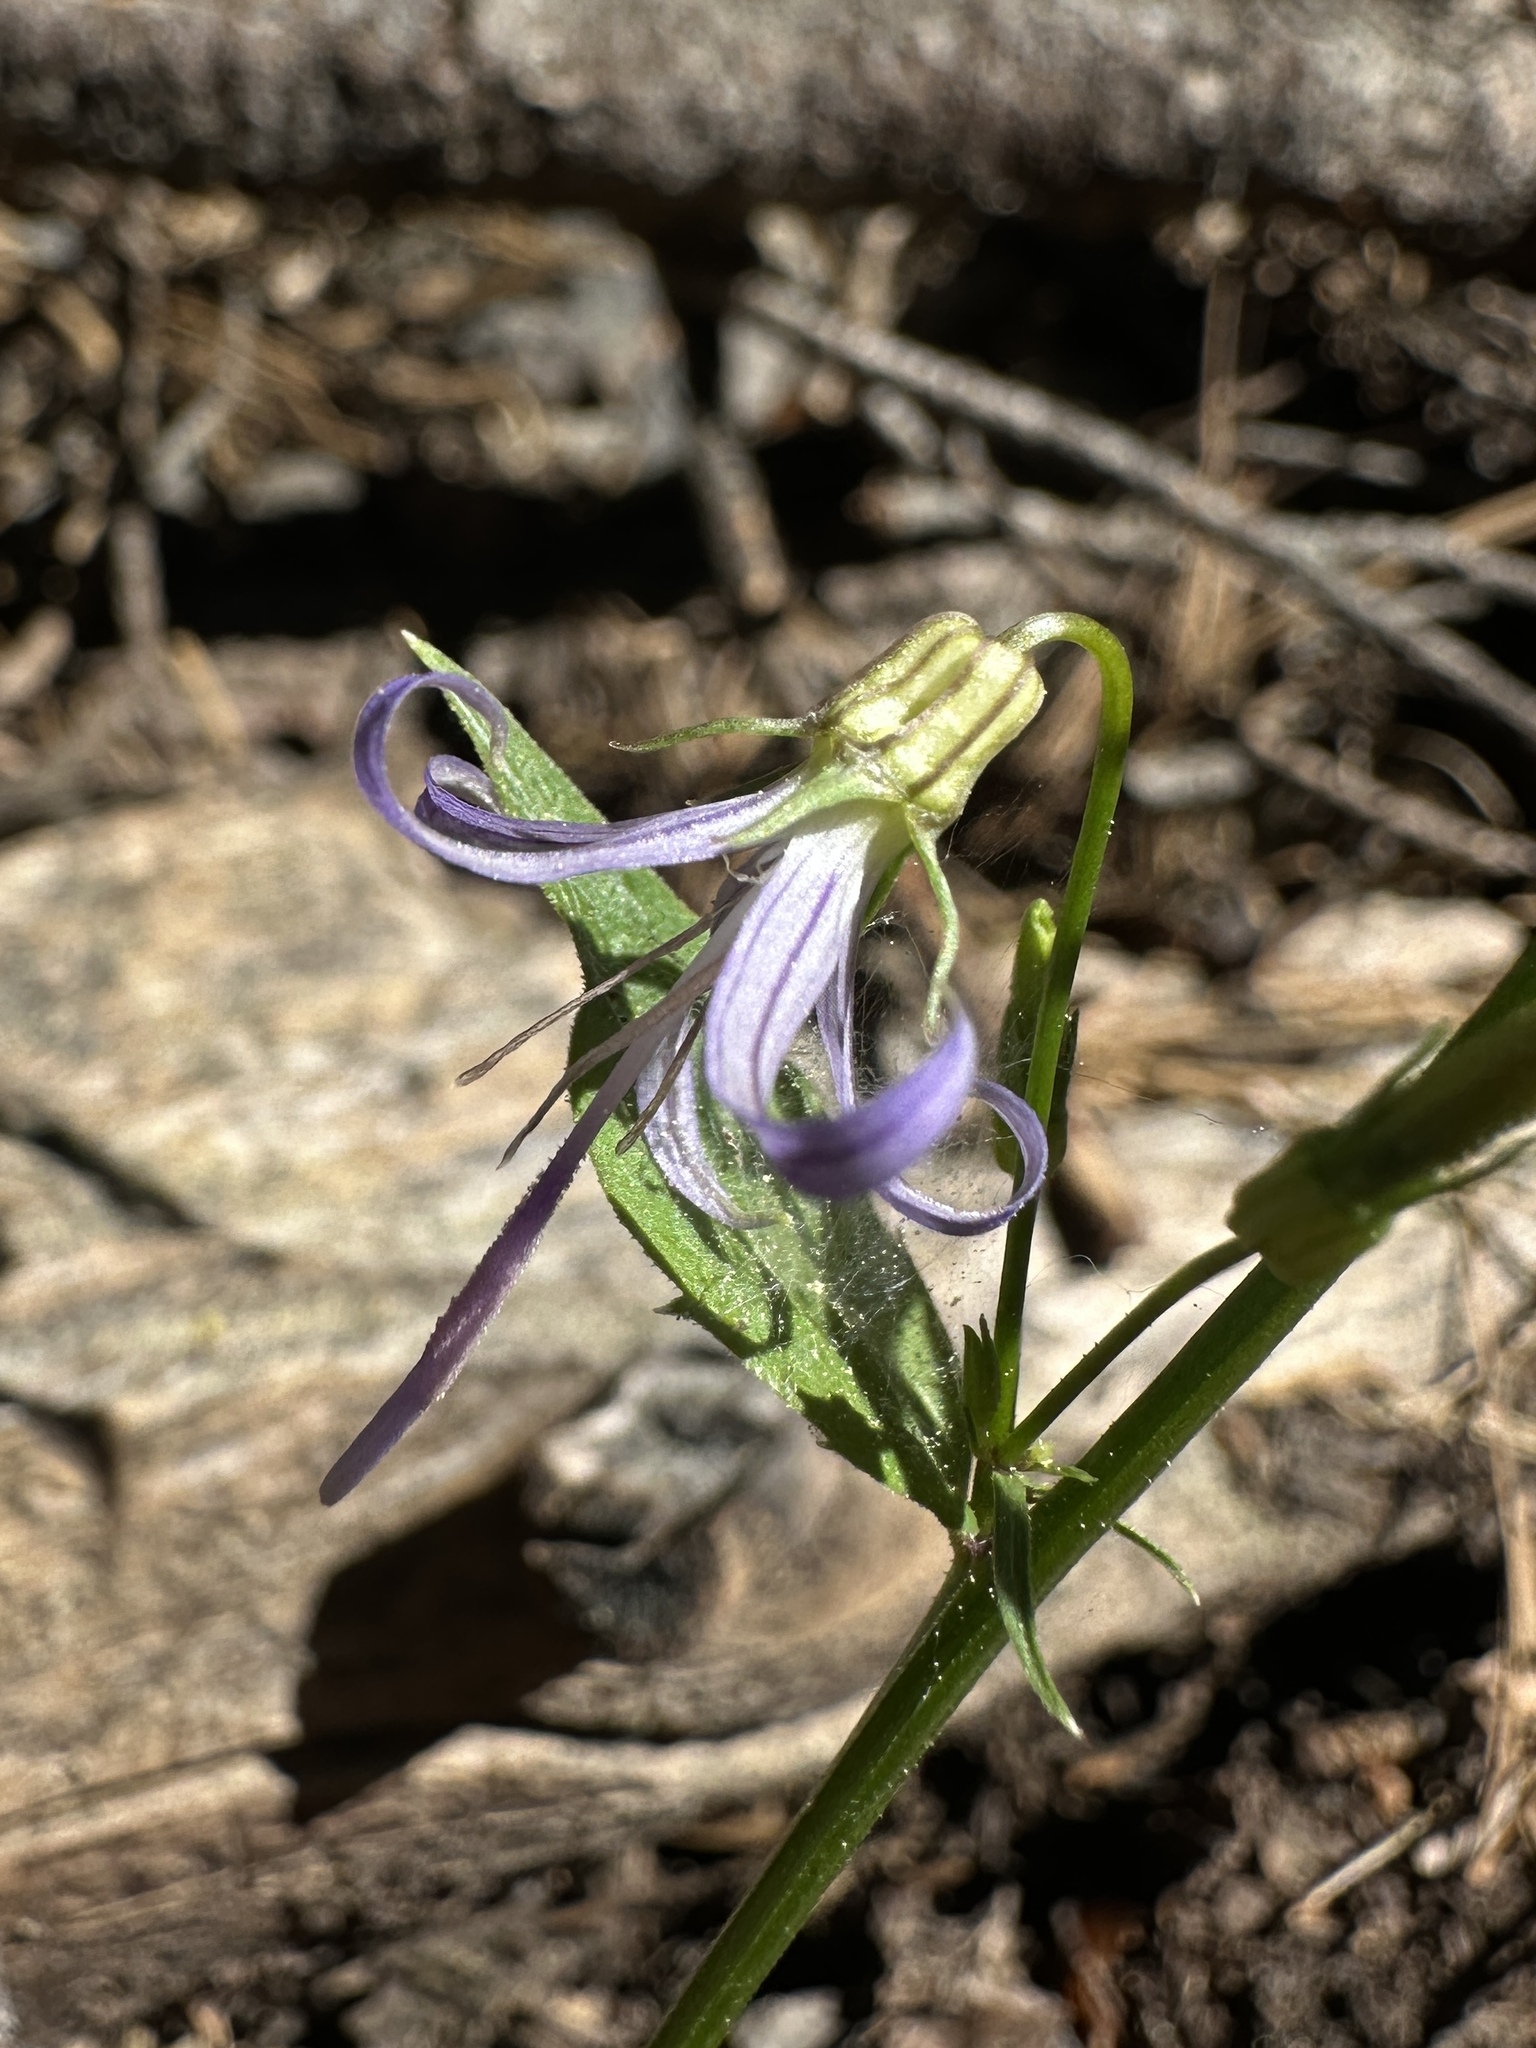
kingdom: Plantae
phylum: Tracheophyta
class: Magnoliopsida
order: Asterales
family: Campanulaceae
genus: Smithiastrum
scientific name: Smithiastrum prenanthoides
